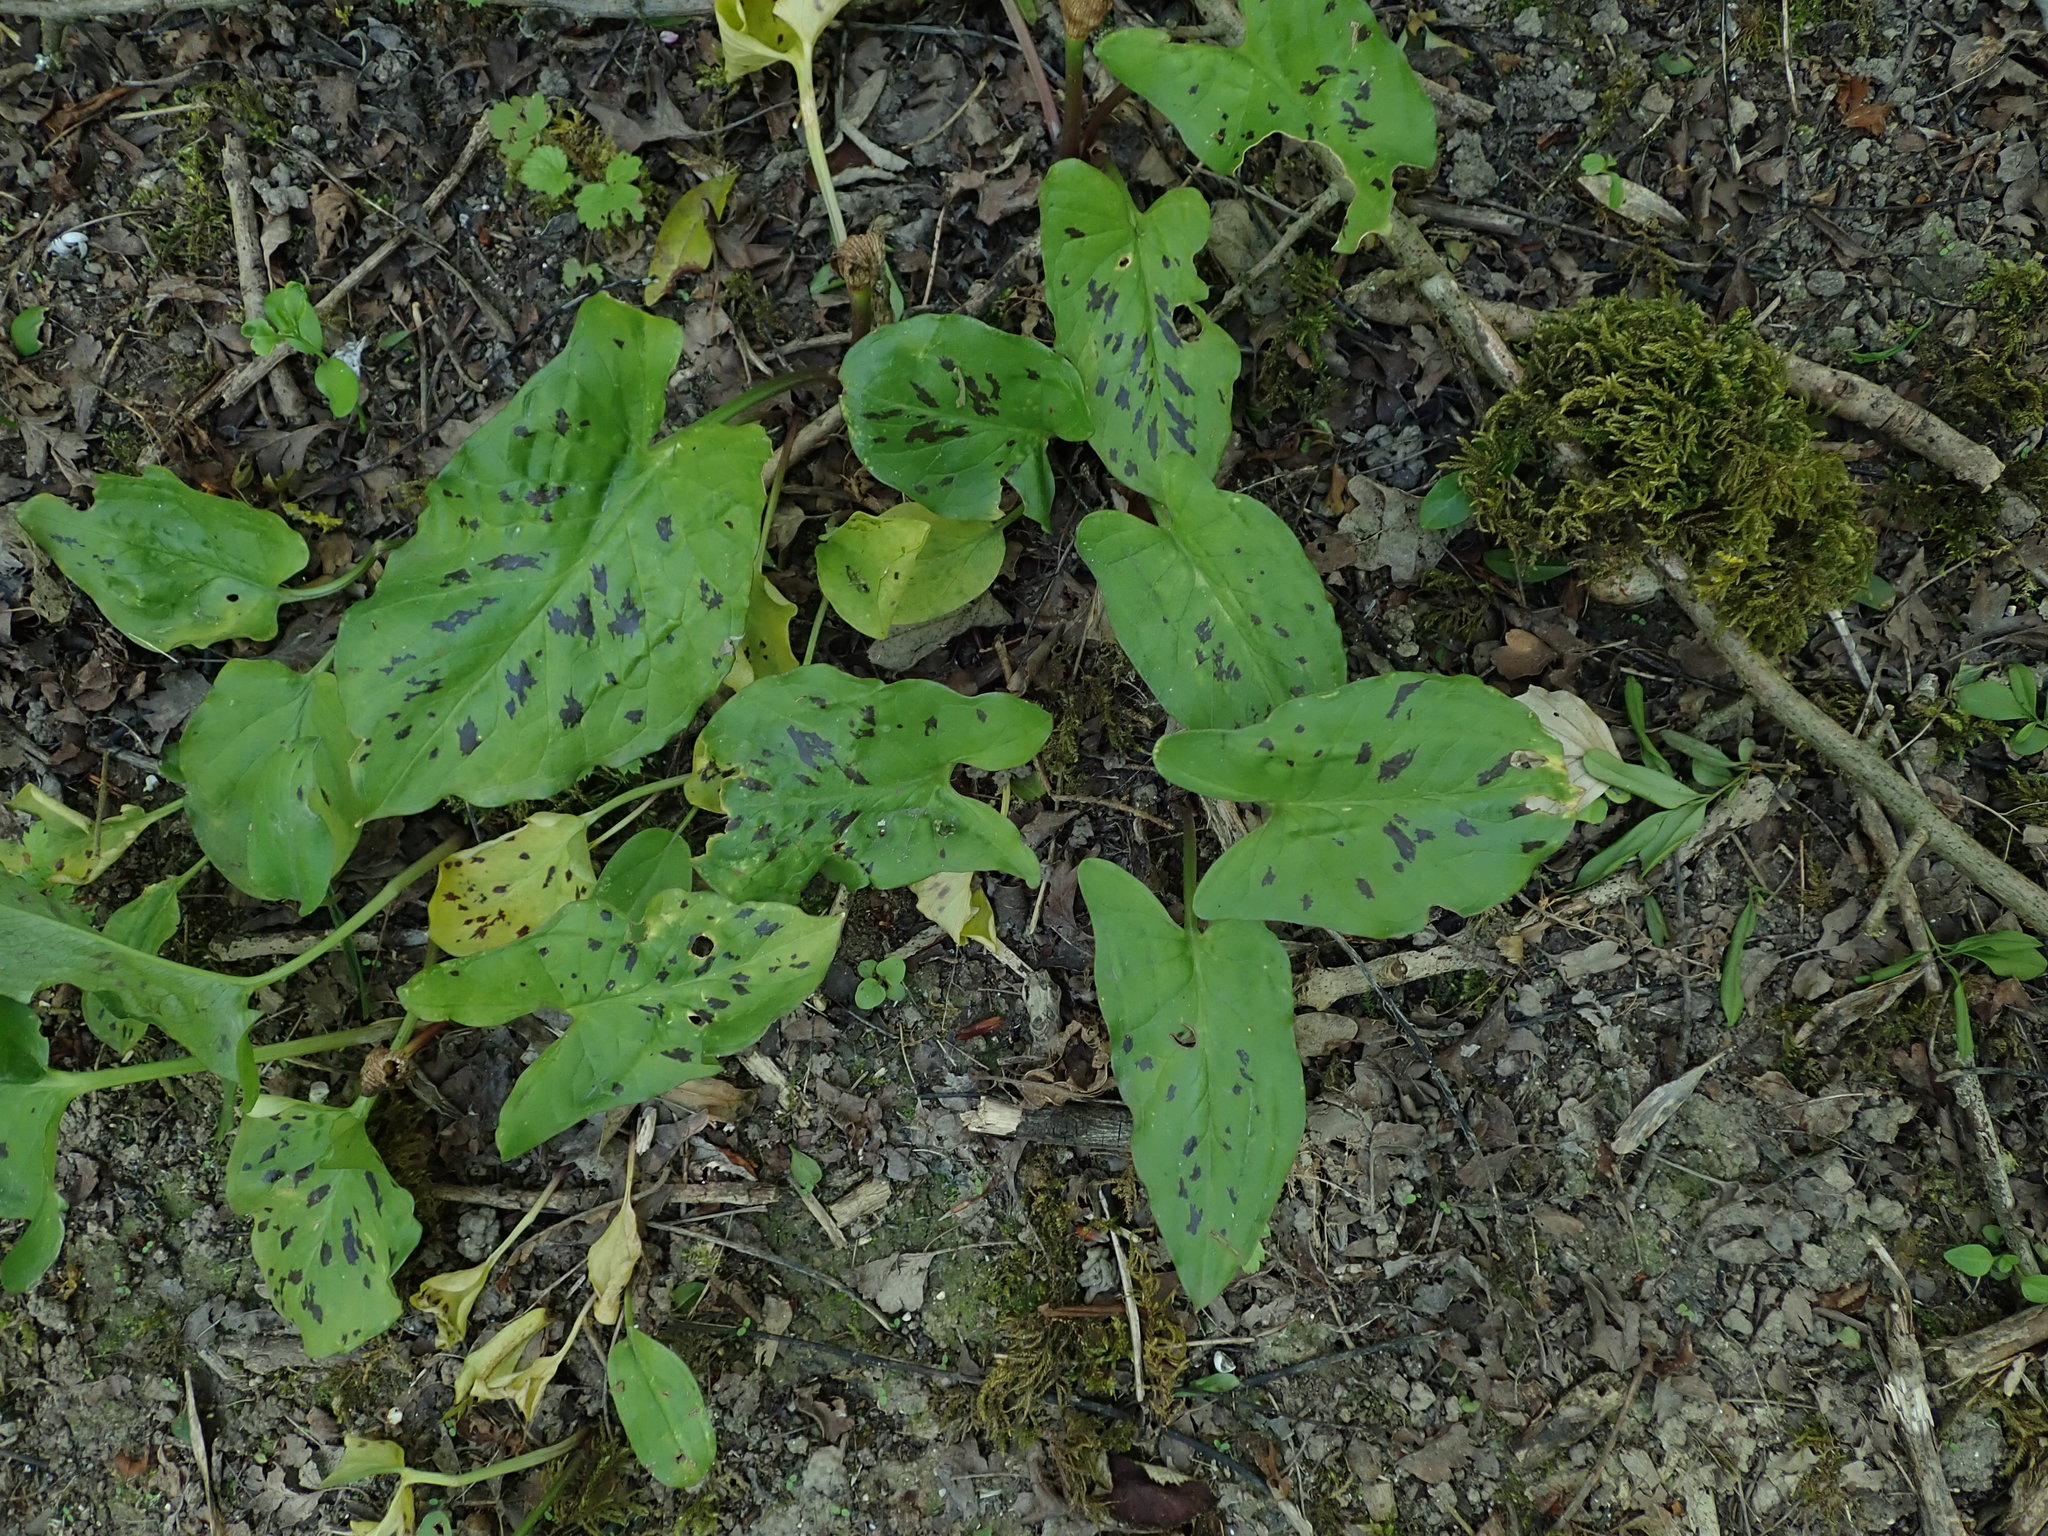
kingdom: Plantae
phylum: Tracheophyta
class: Liliopsida
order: Alismatales
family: Araceae
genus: Arum
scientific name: Arum maculatum
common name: Lords-and-ladies
